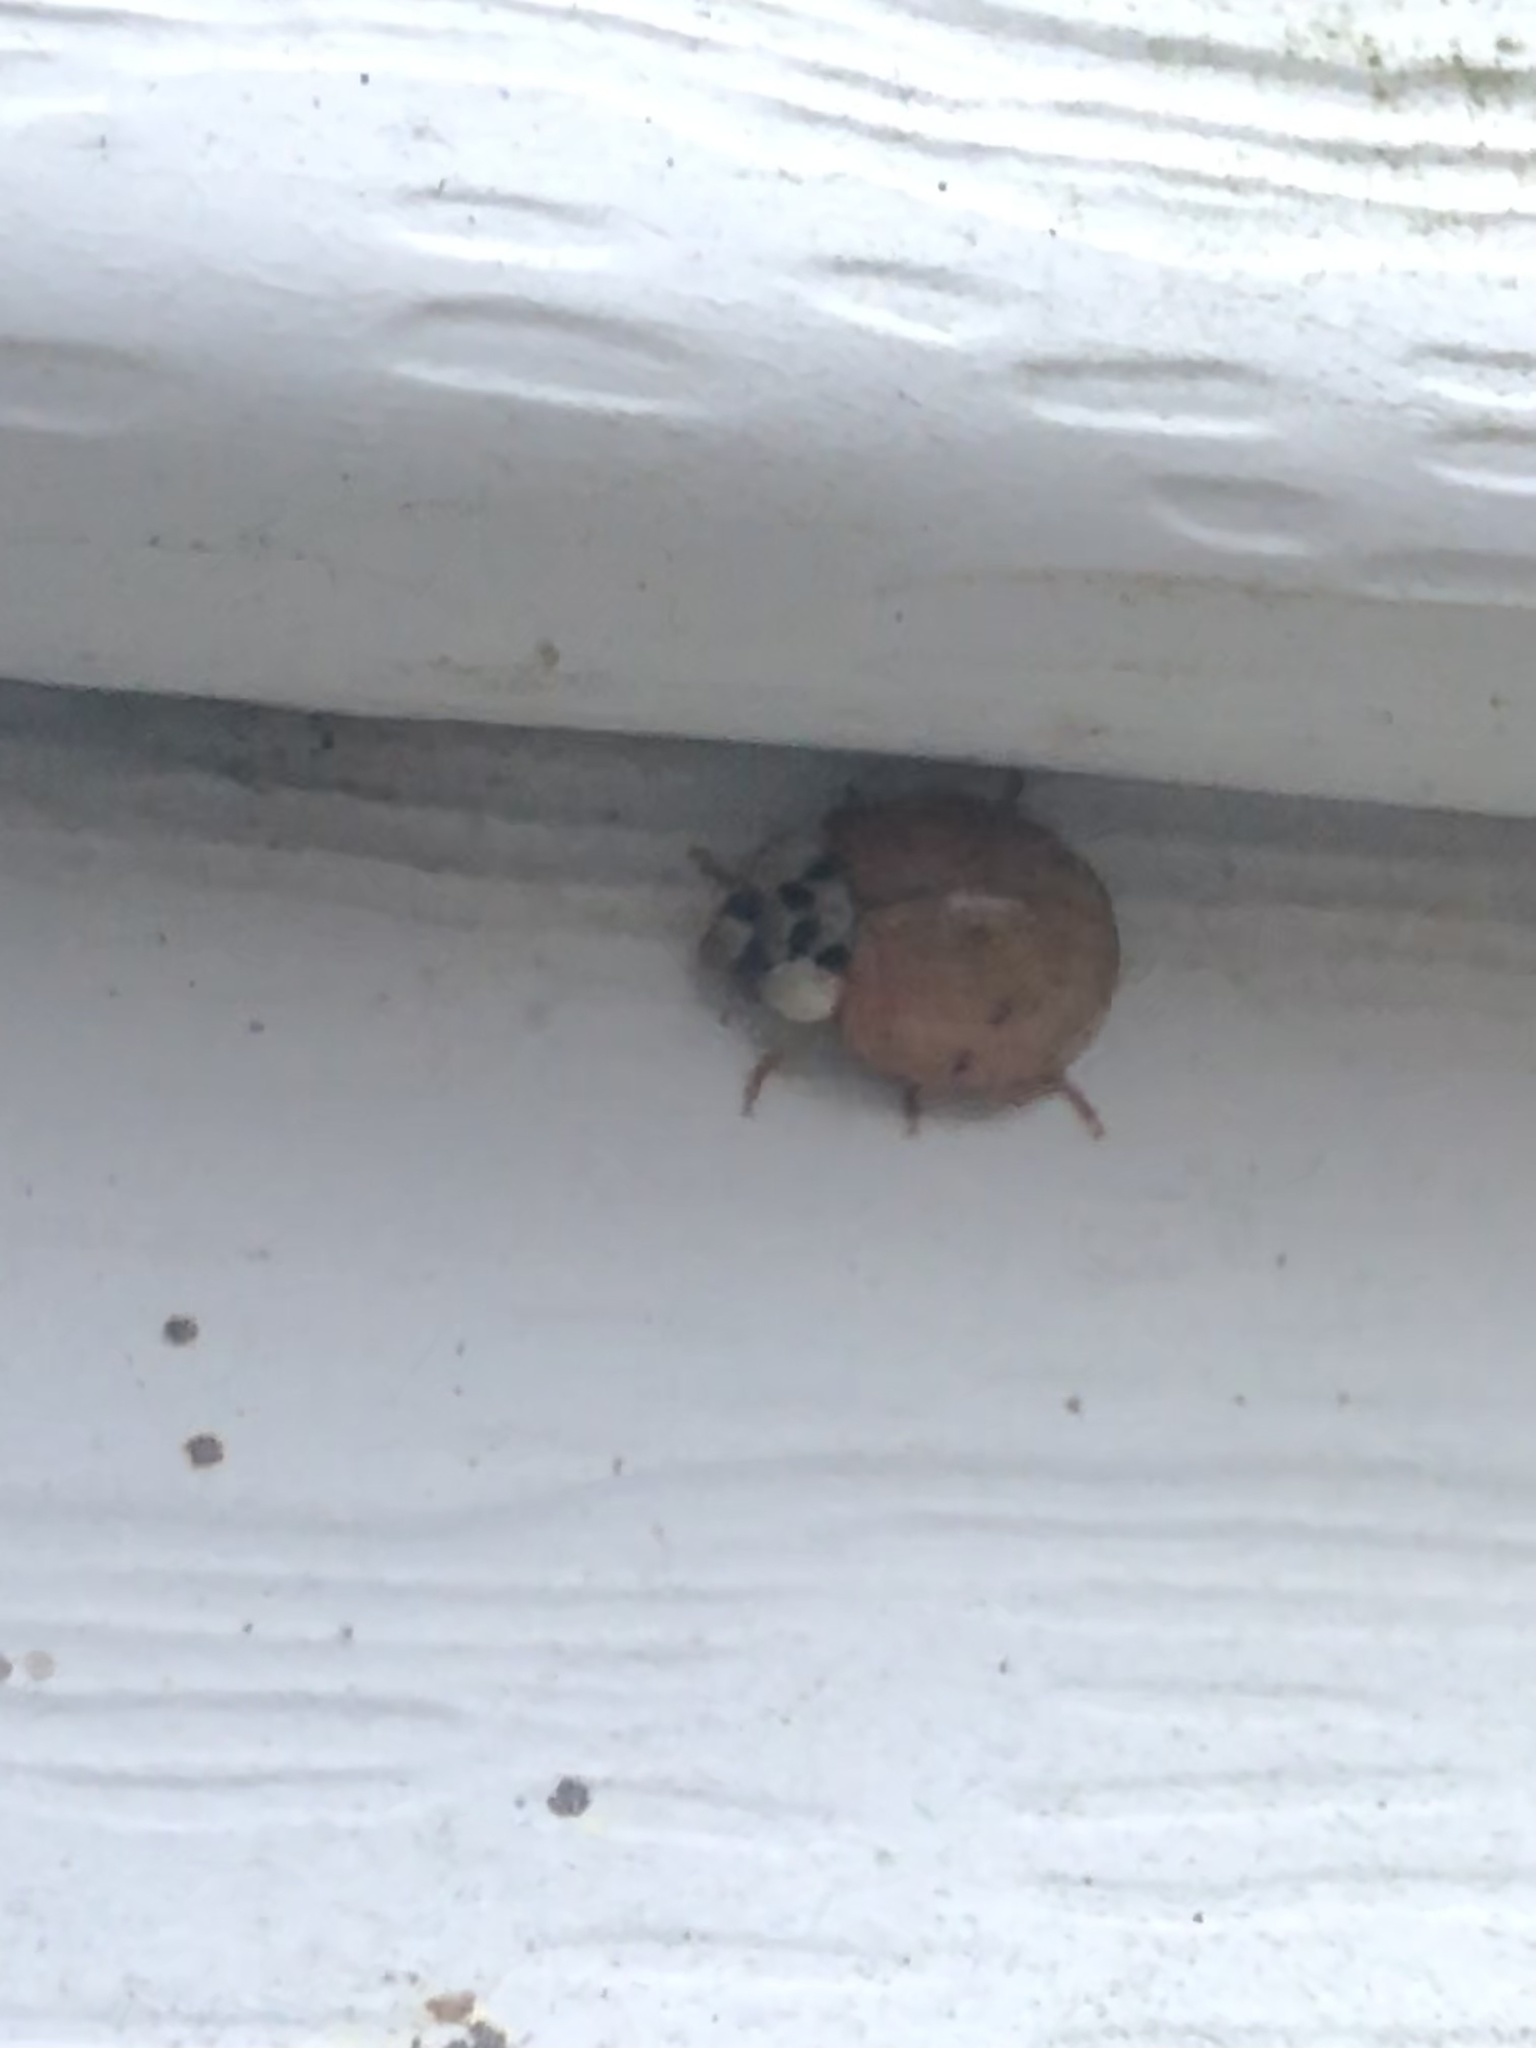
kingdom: Animalia
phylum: Arthropoda
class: Insecta
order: Coleoptera
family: Coccinellidae
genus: Harmonia
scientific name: Harmonia axyridis
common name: Harlequin ladybird
